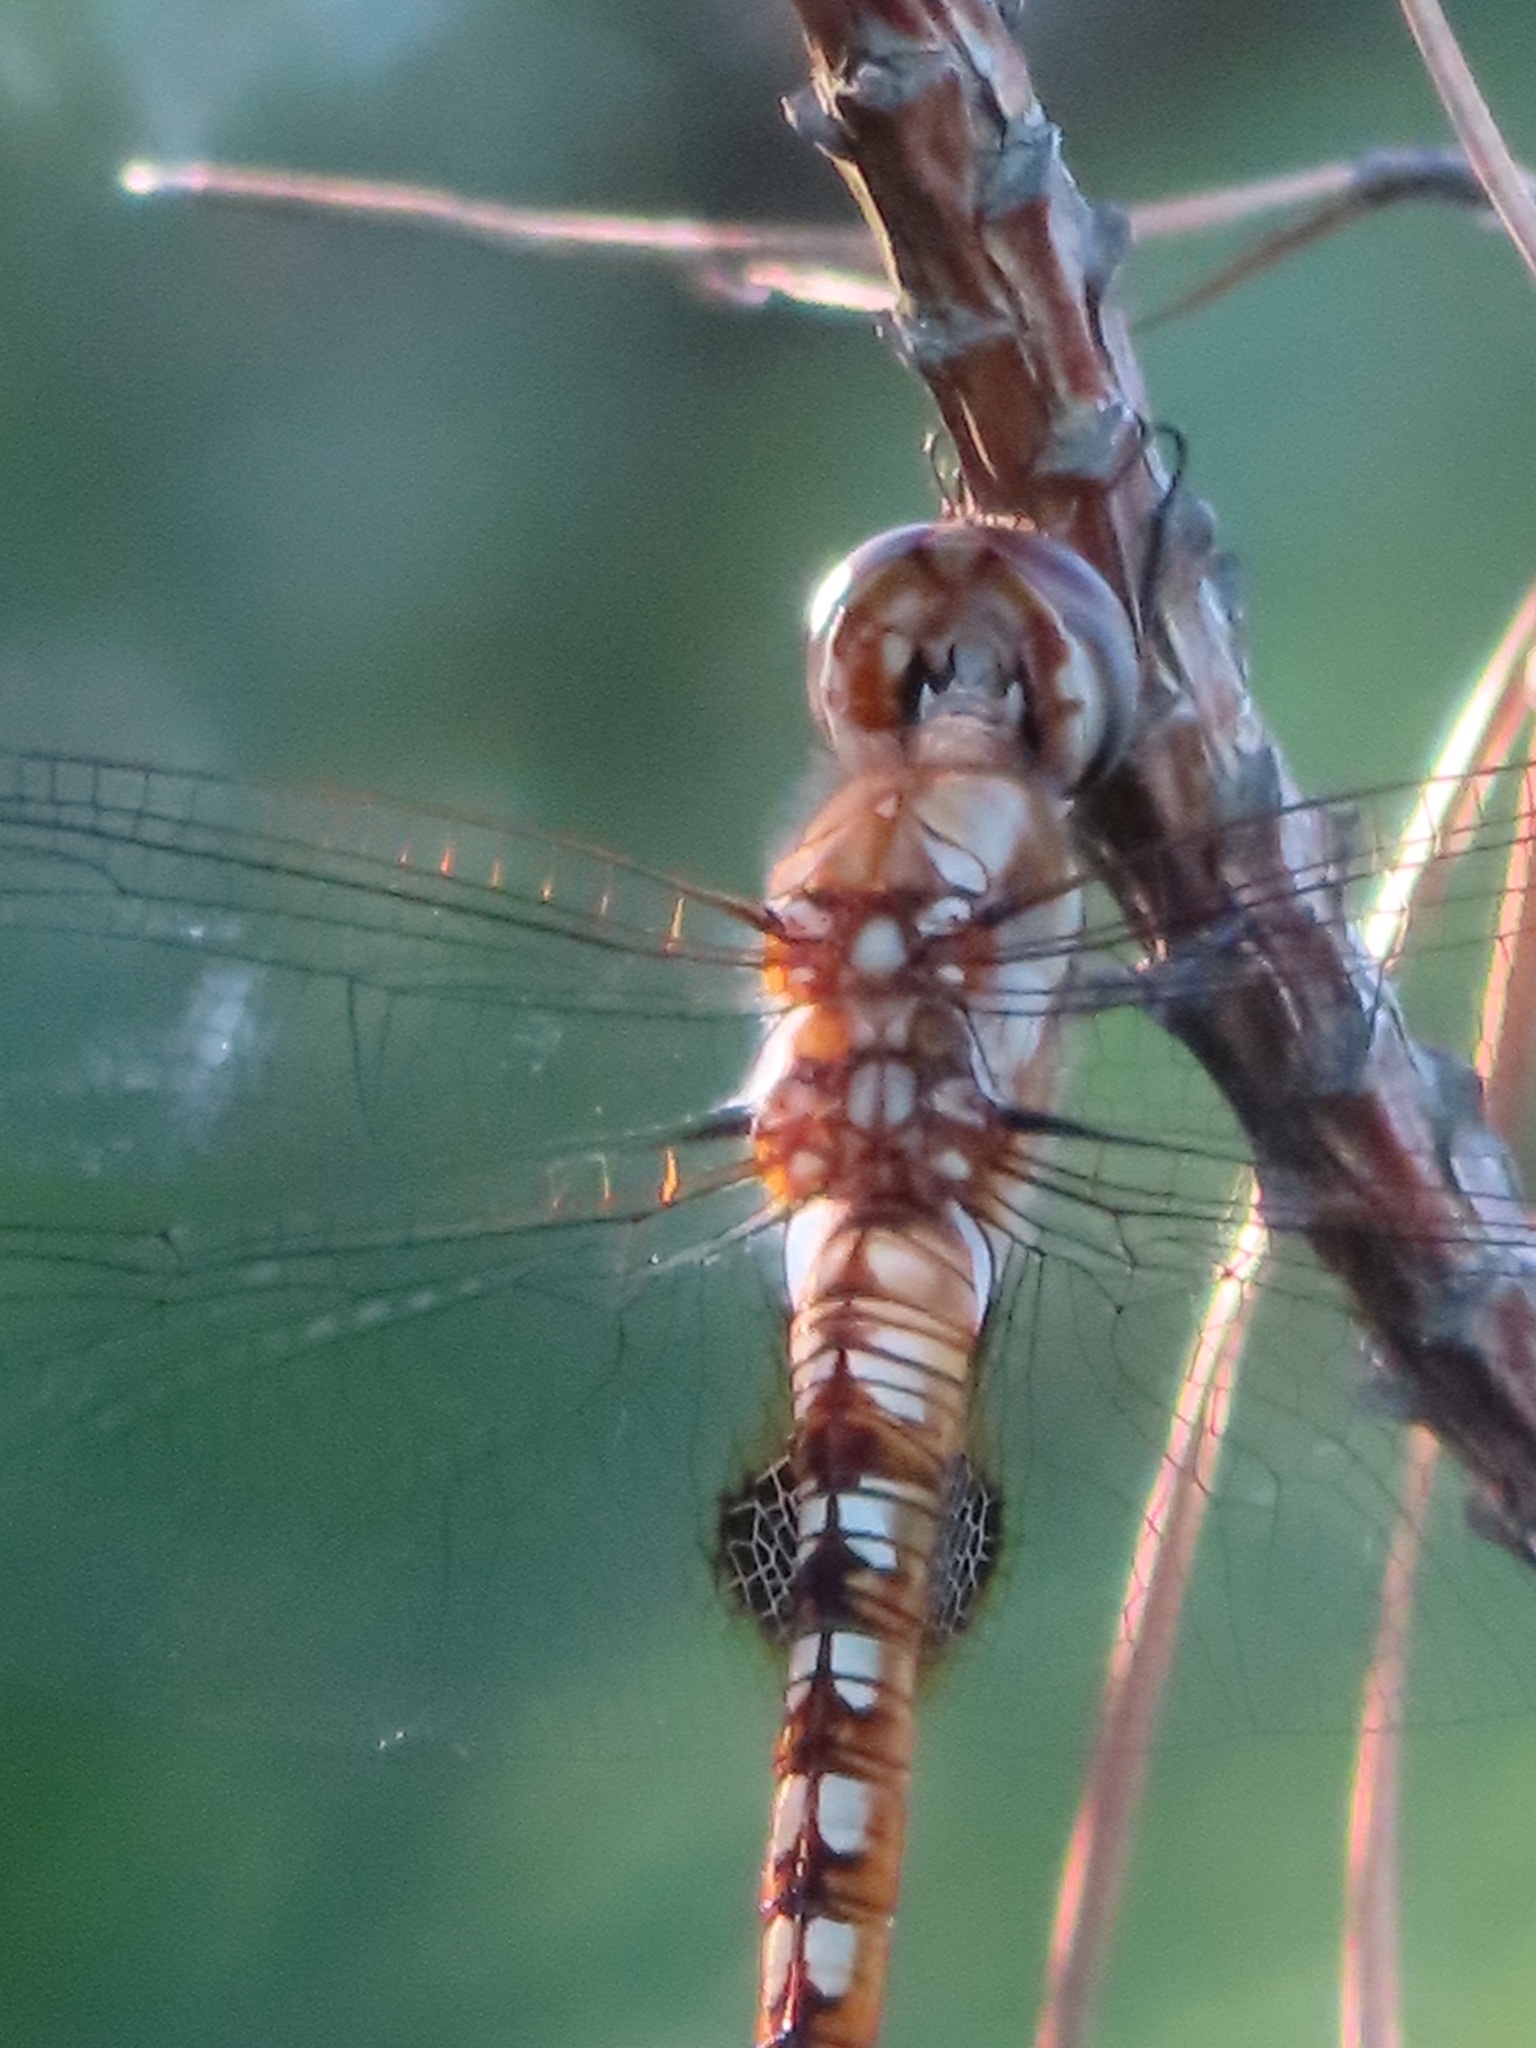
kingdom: Animalia
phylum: Arthropoda
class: Insecta
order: Odonata
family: Libellulidae
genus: Pantala
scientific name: Pantala hymenaea
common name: Spot-winged glider
